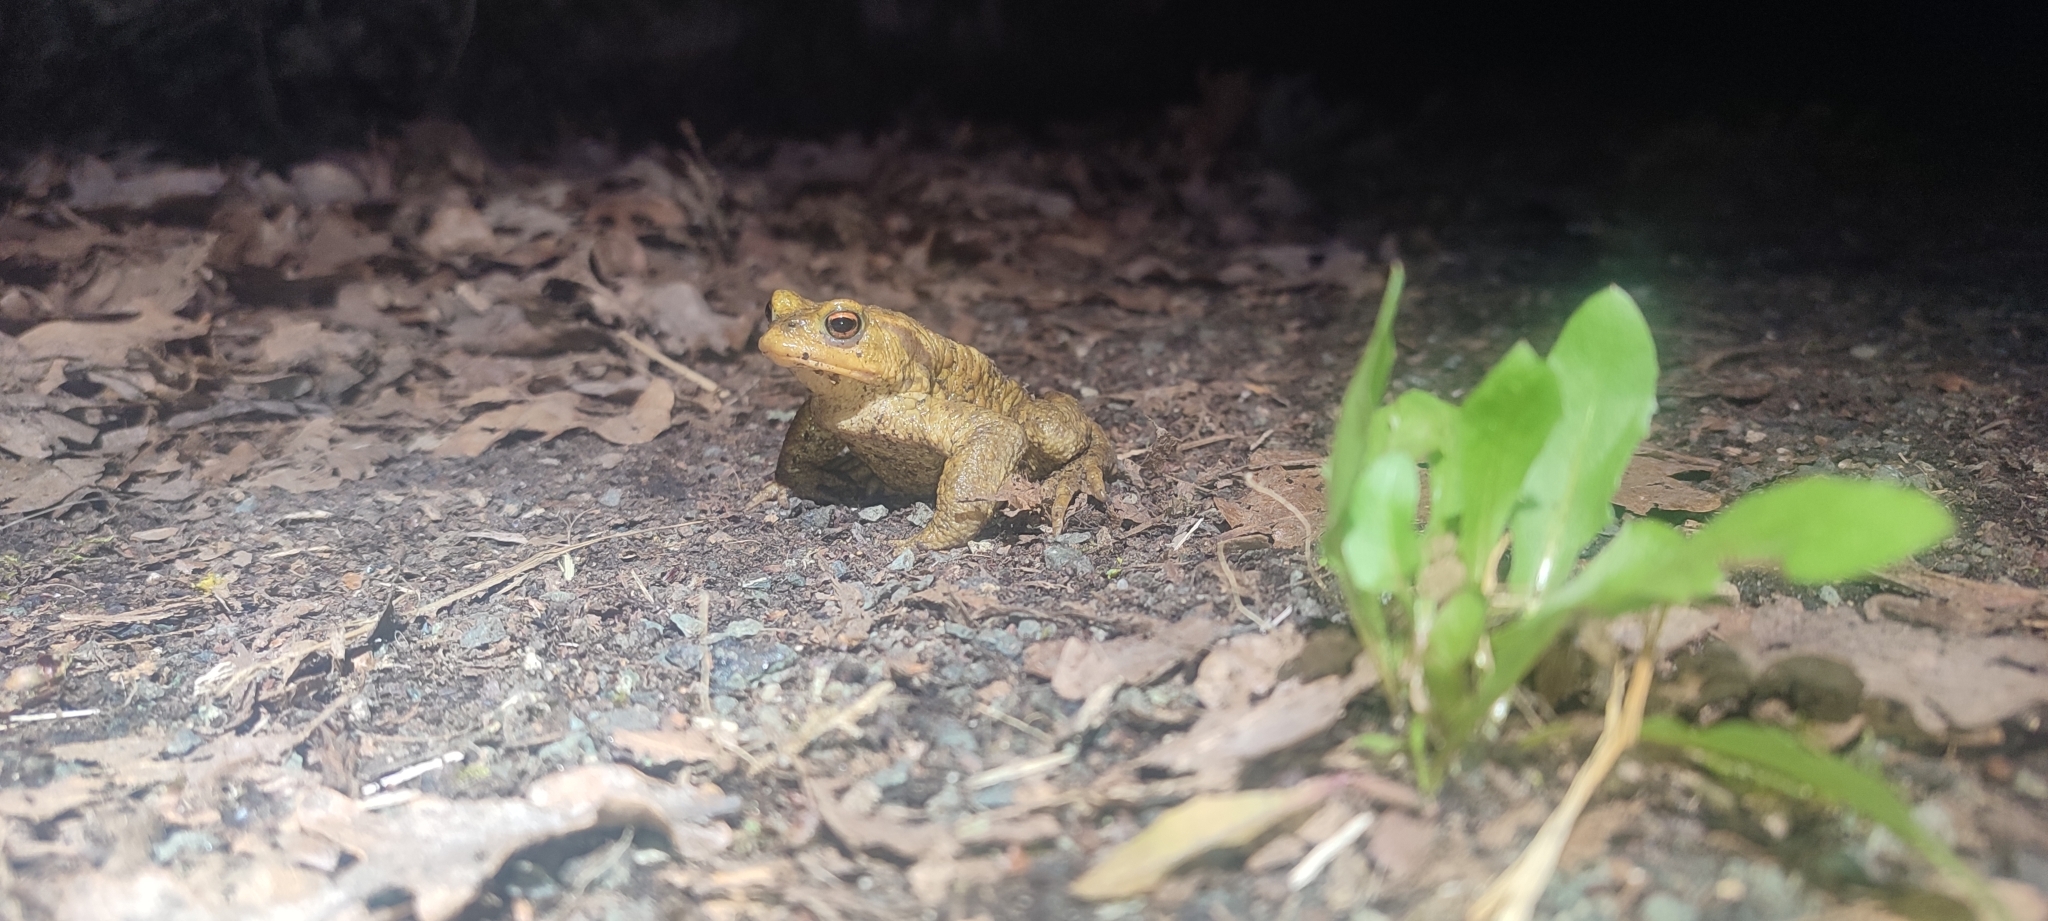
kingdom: Animalia
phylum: Chordata
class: Amphibia
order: Anura
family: Bufonidae
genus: Bufo
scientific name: Bufo spinosus
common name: Western common toad
